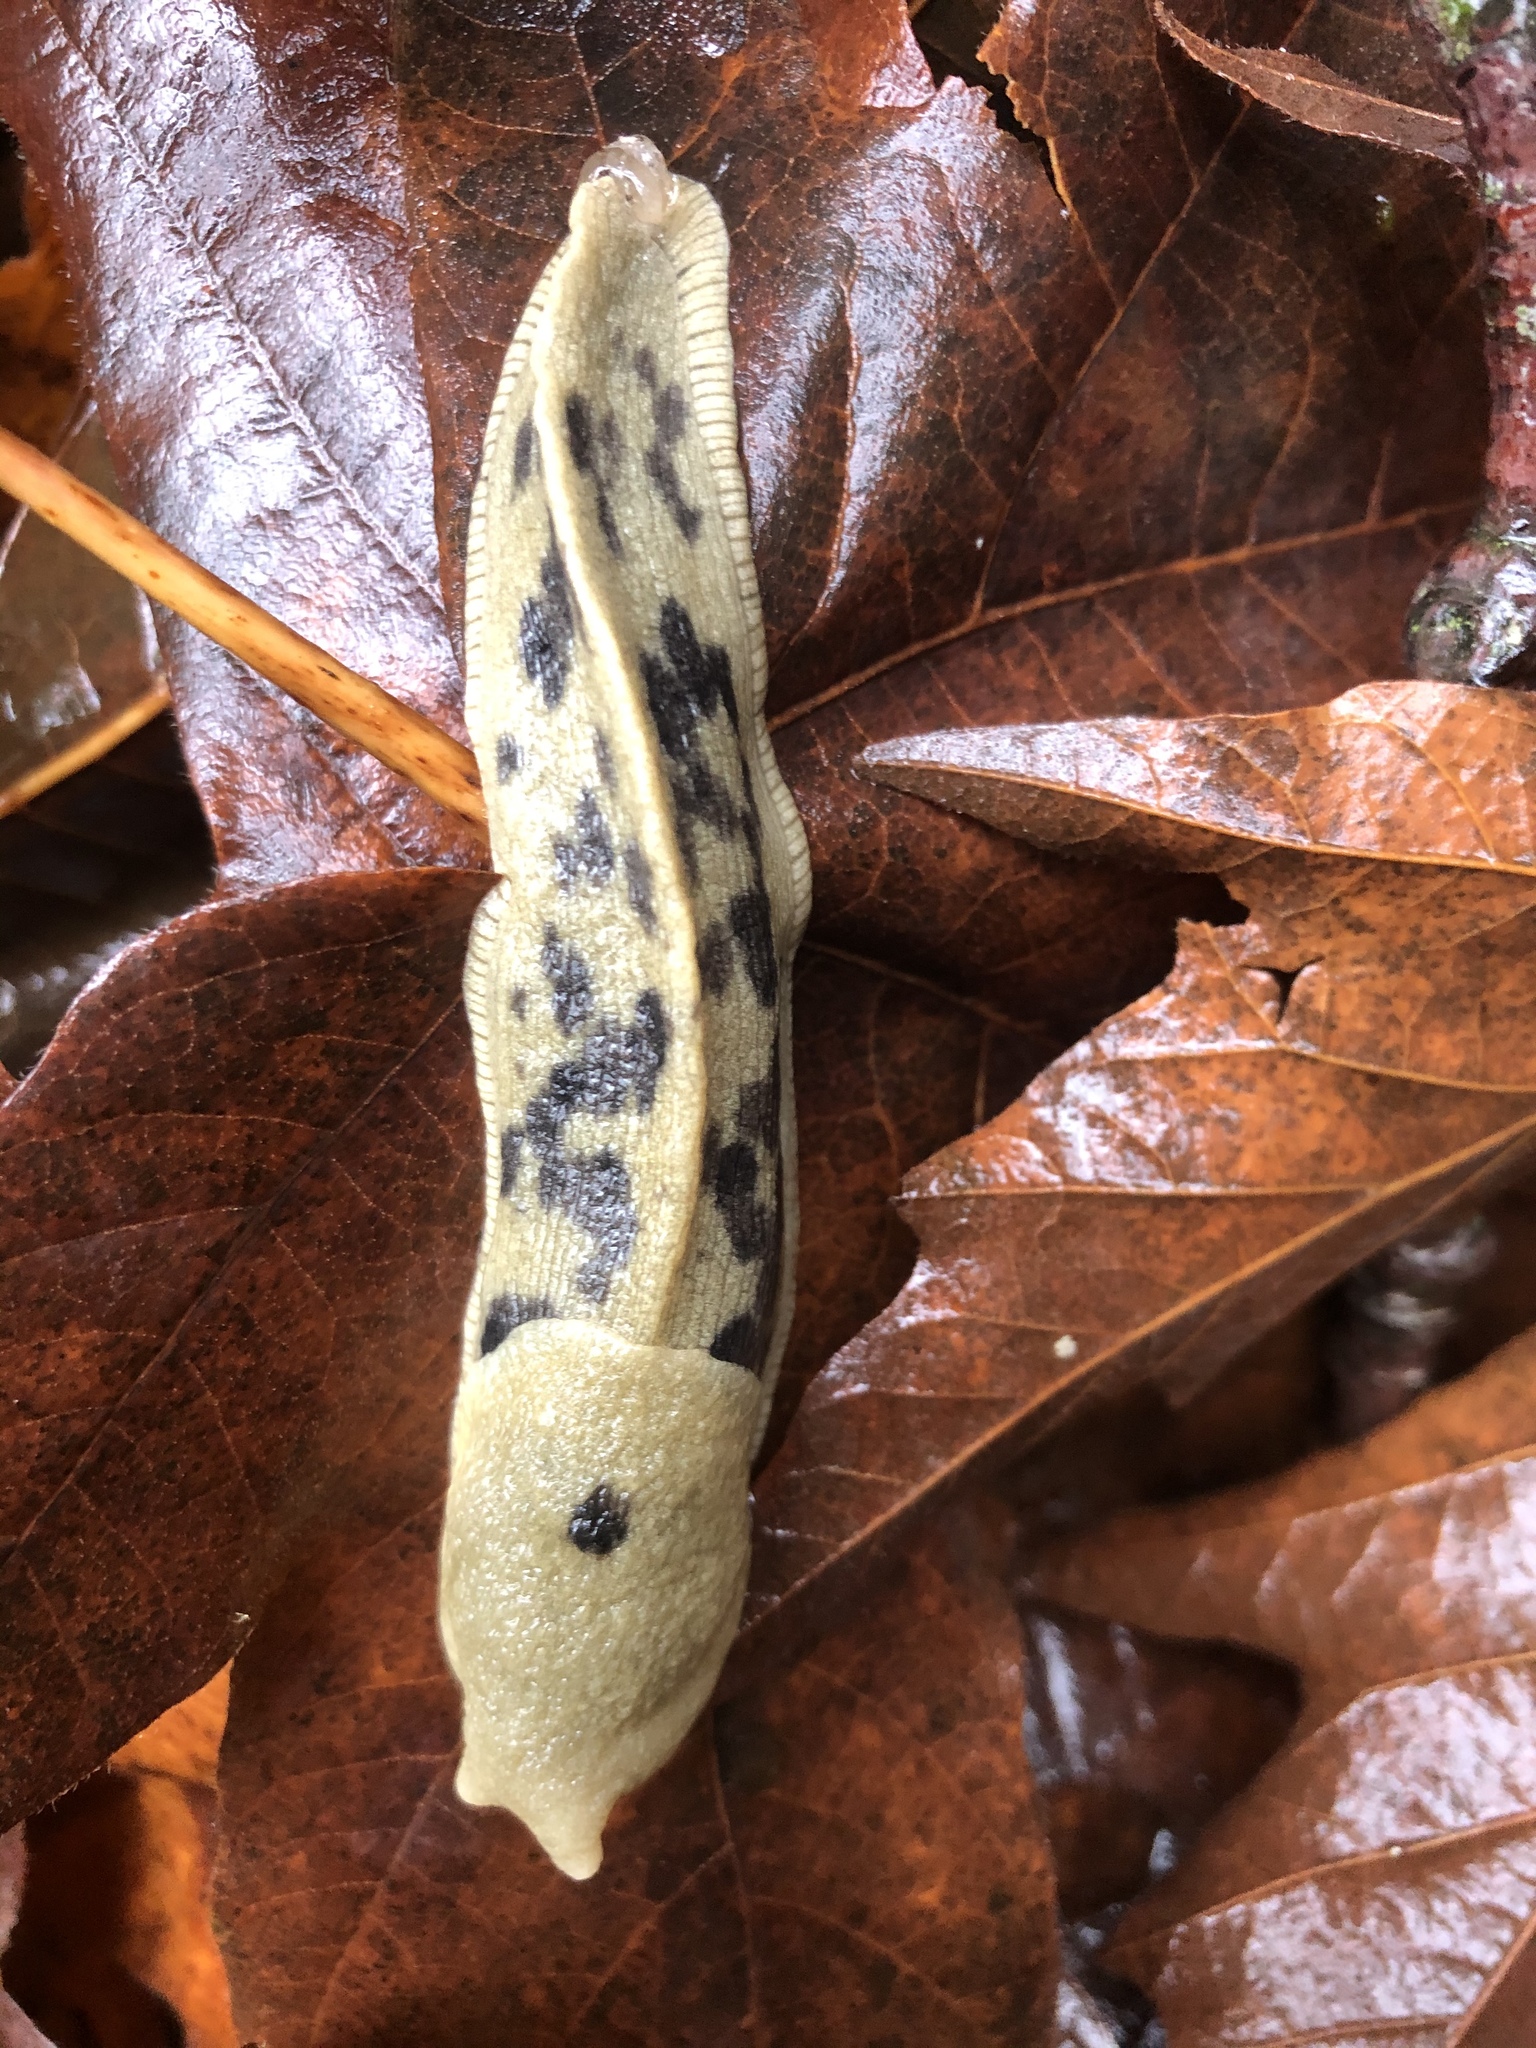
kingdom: Animalia
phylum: Mollusca
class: Gastropoda
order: Stylommatophora
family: Ariolimacidae
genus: Ariolimax
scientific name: Ariolimax columbianus
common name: Pacific banana slug
